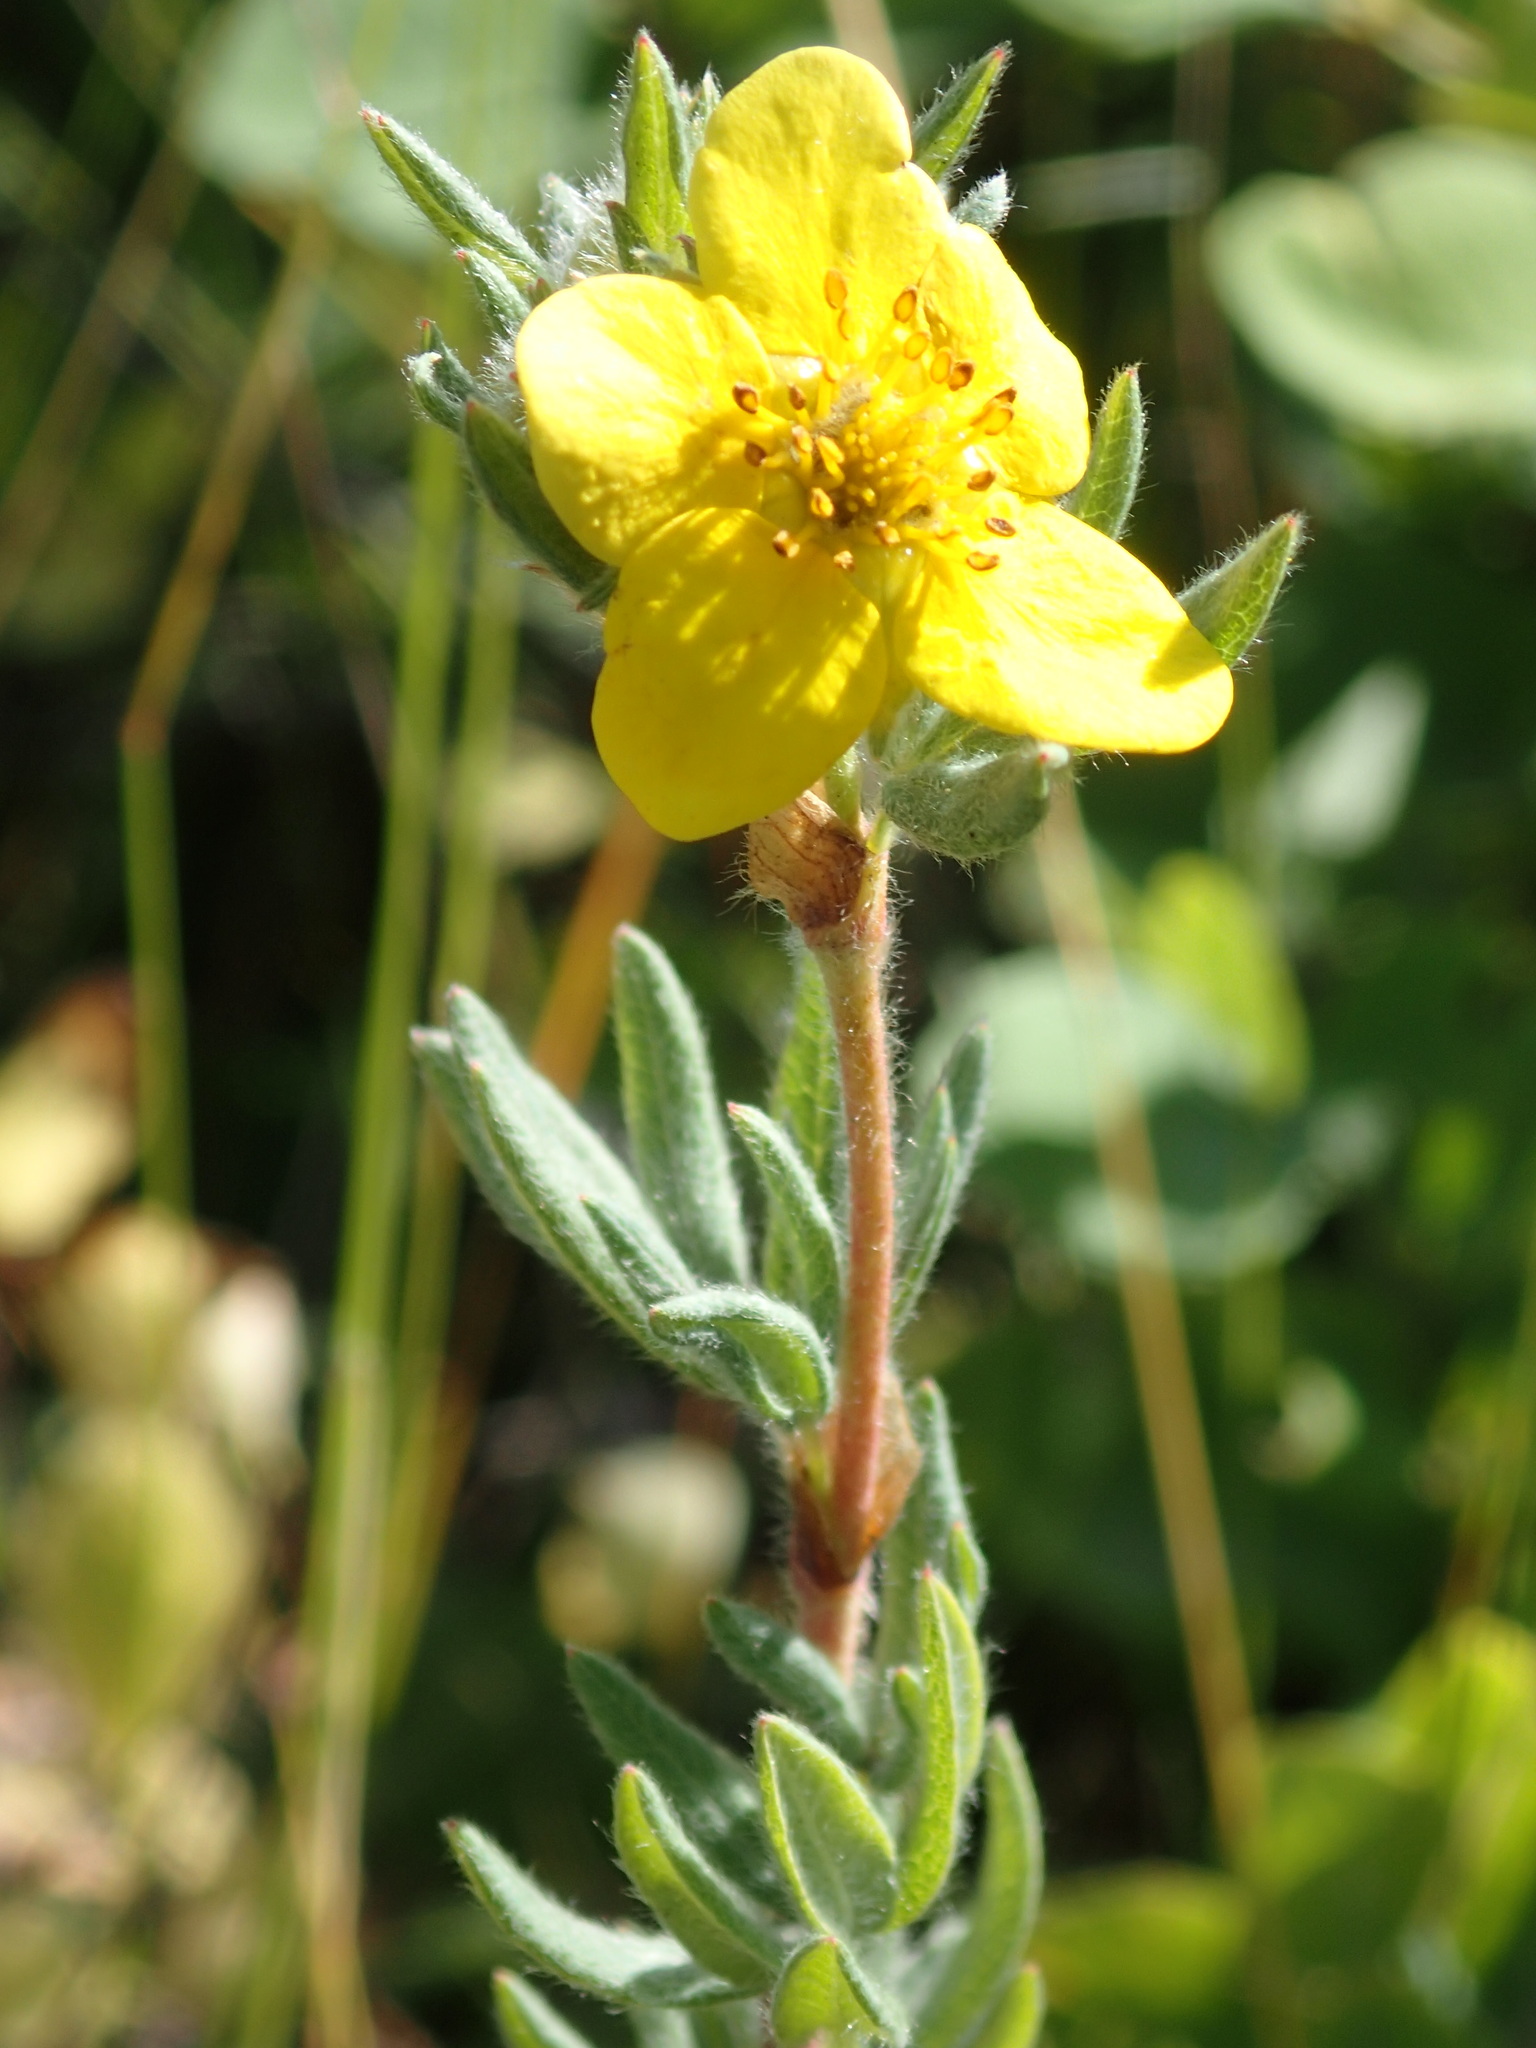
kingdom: Plantae
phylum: Tracheophyta
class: Magnoliopsida
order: Rosales
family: Rosaceae
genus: Dasiphora
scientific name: Dasiphora fruticosa
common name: Shrubby cinquefoil
